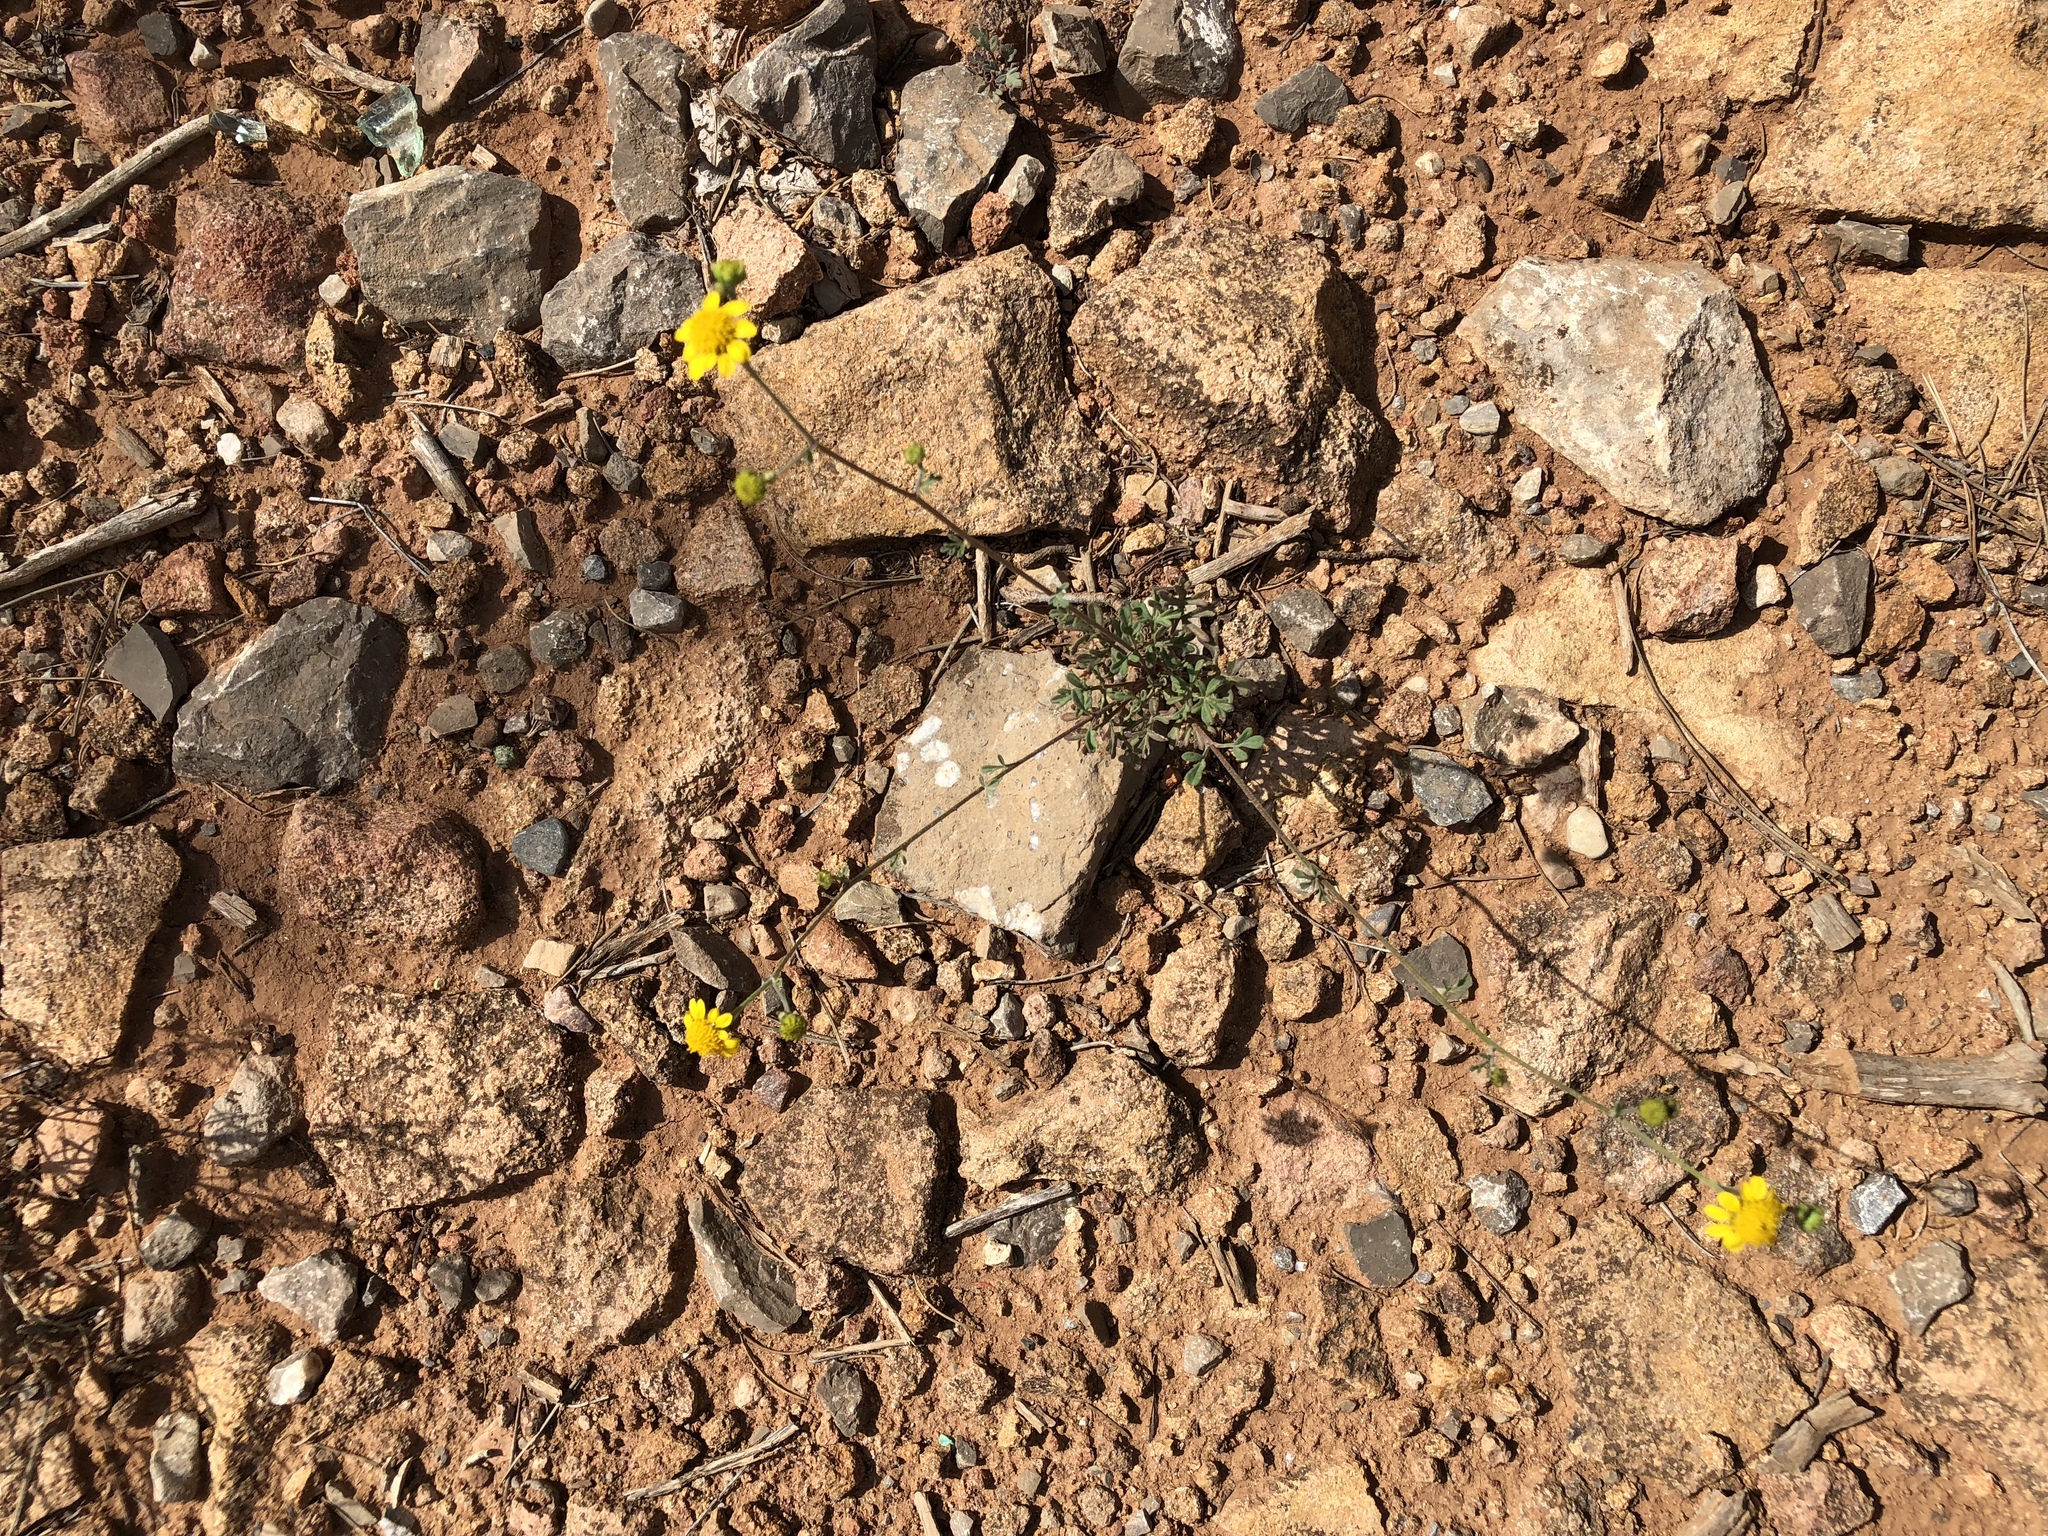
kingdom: Plantae
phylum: Tracheophyta
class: Magnoliopsida
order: Asterales
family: Asteraceae
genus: Hymenothrix
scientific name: Hymenothrix dissecta
